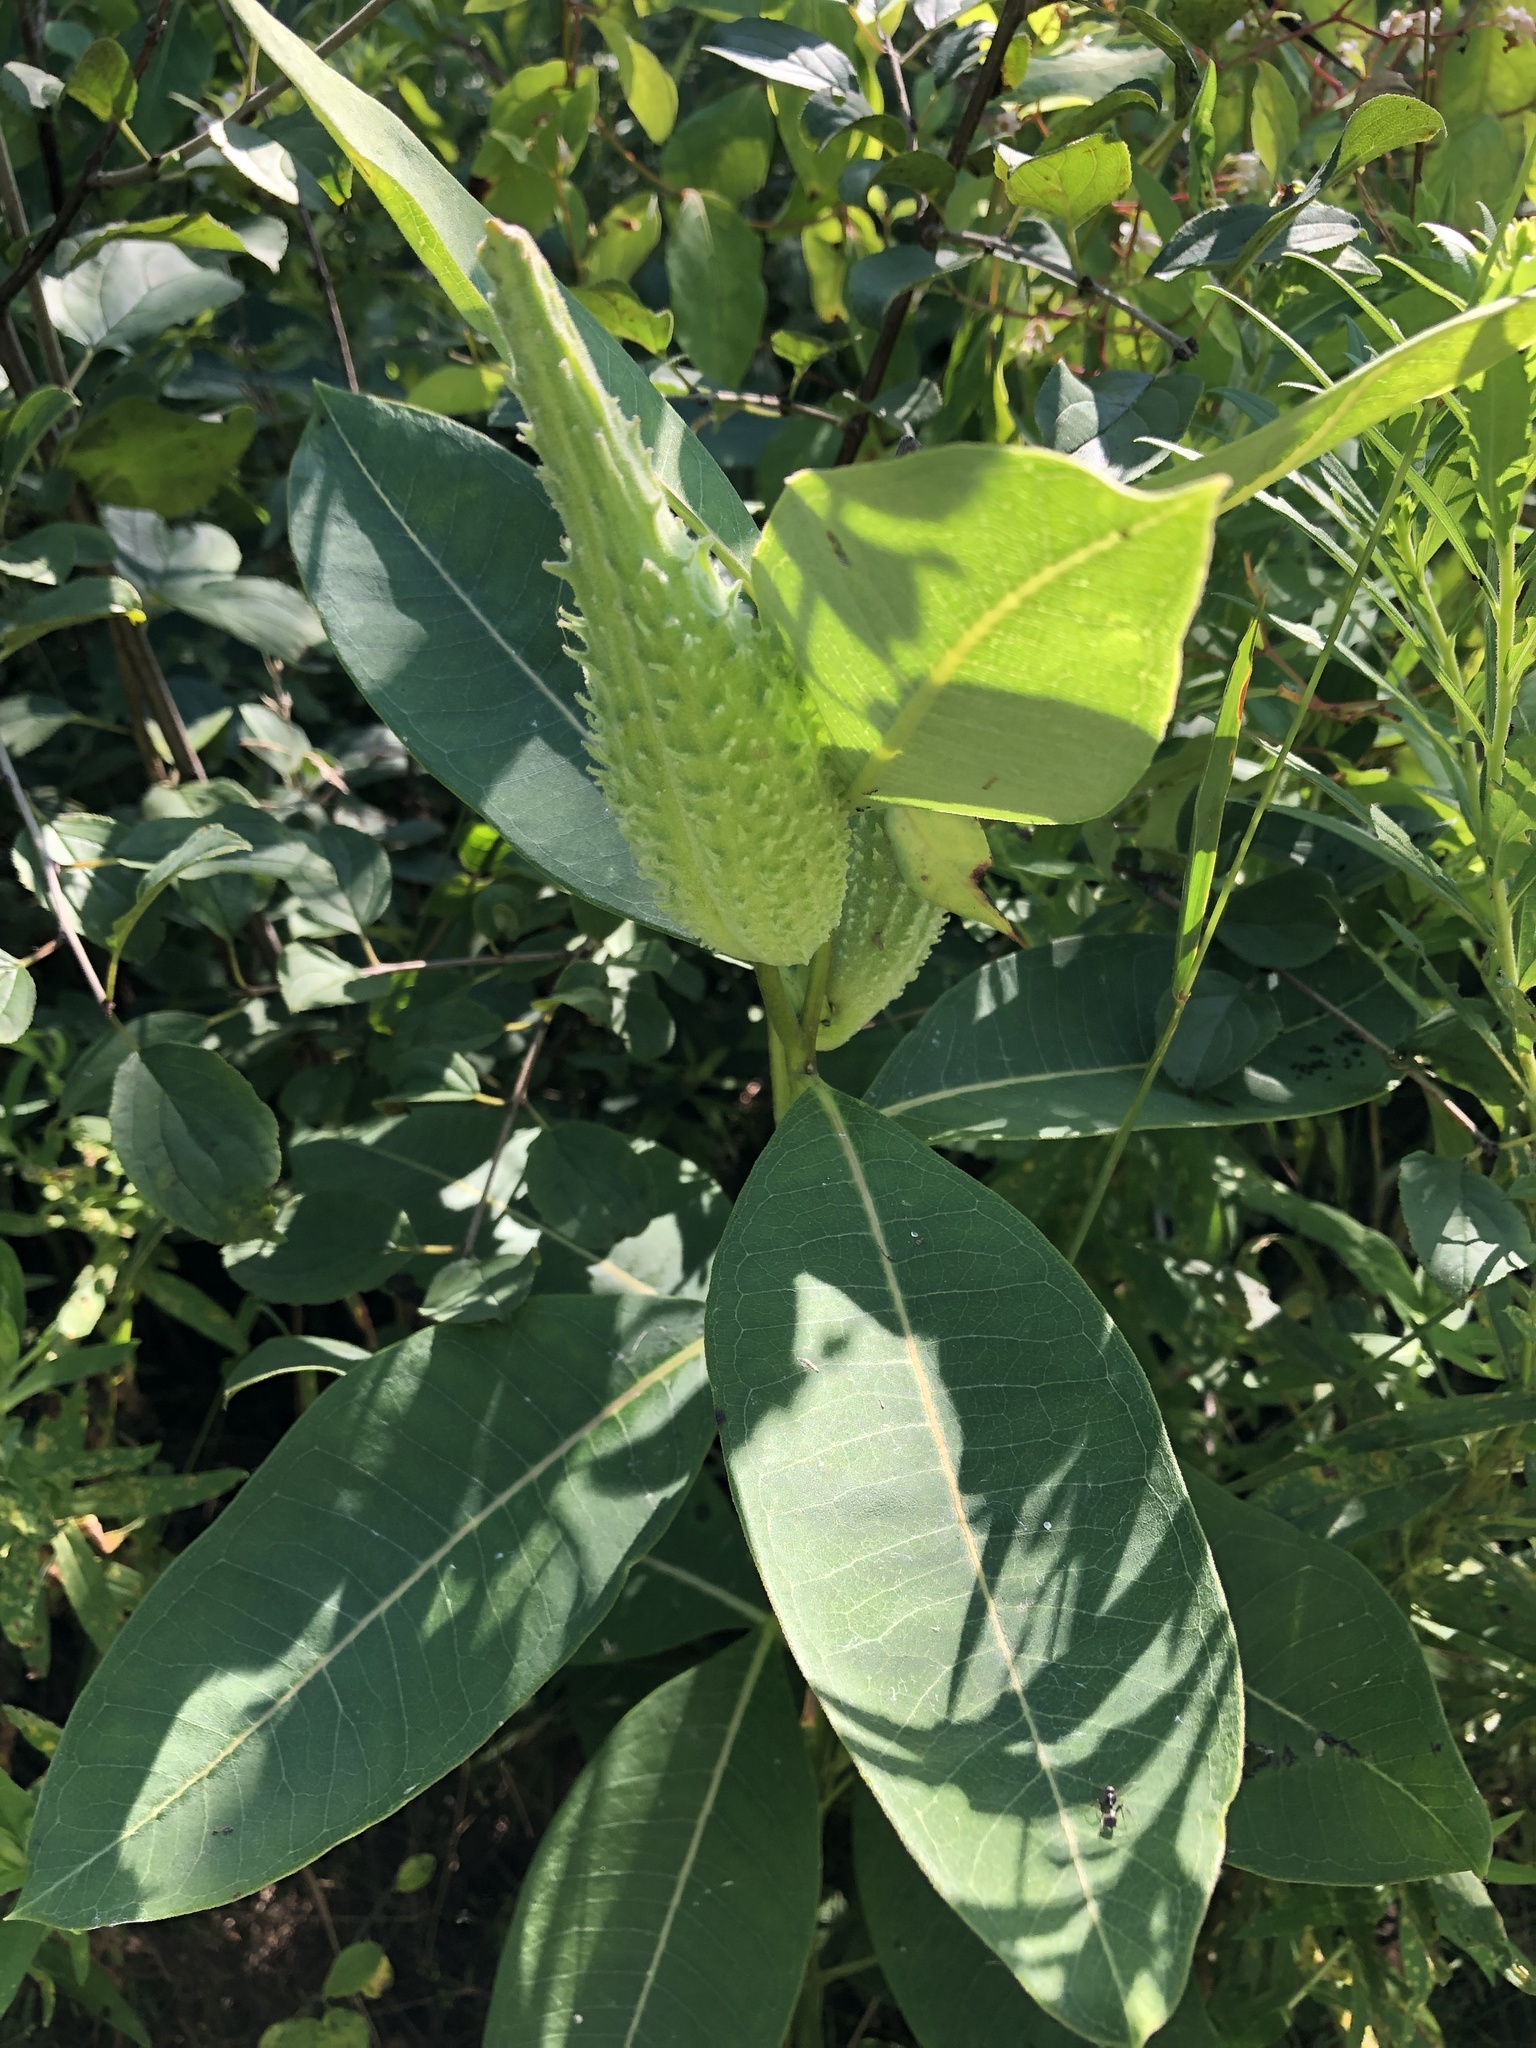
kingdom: Plantae
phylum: Tracheophyta
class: Magnoliopsida
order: Gentianales
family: Apocynaceae
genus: Asclepias
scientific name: Asclepias syriaca
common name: Common milkweed
